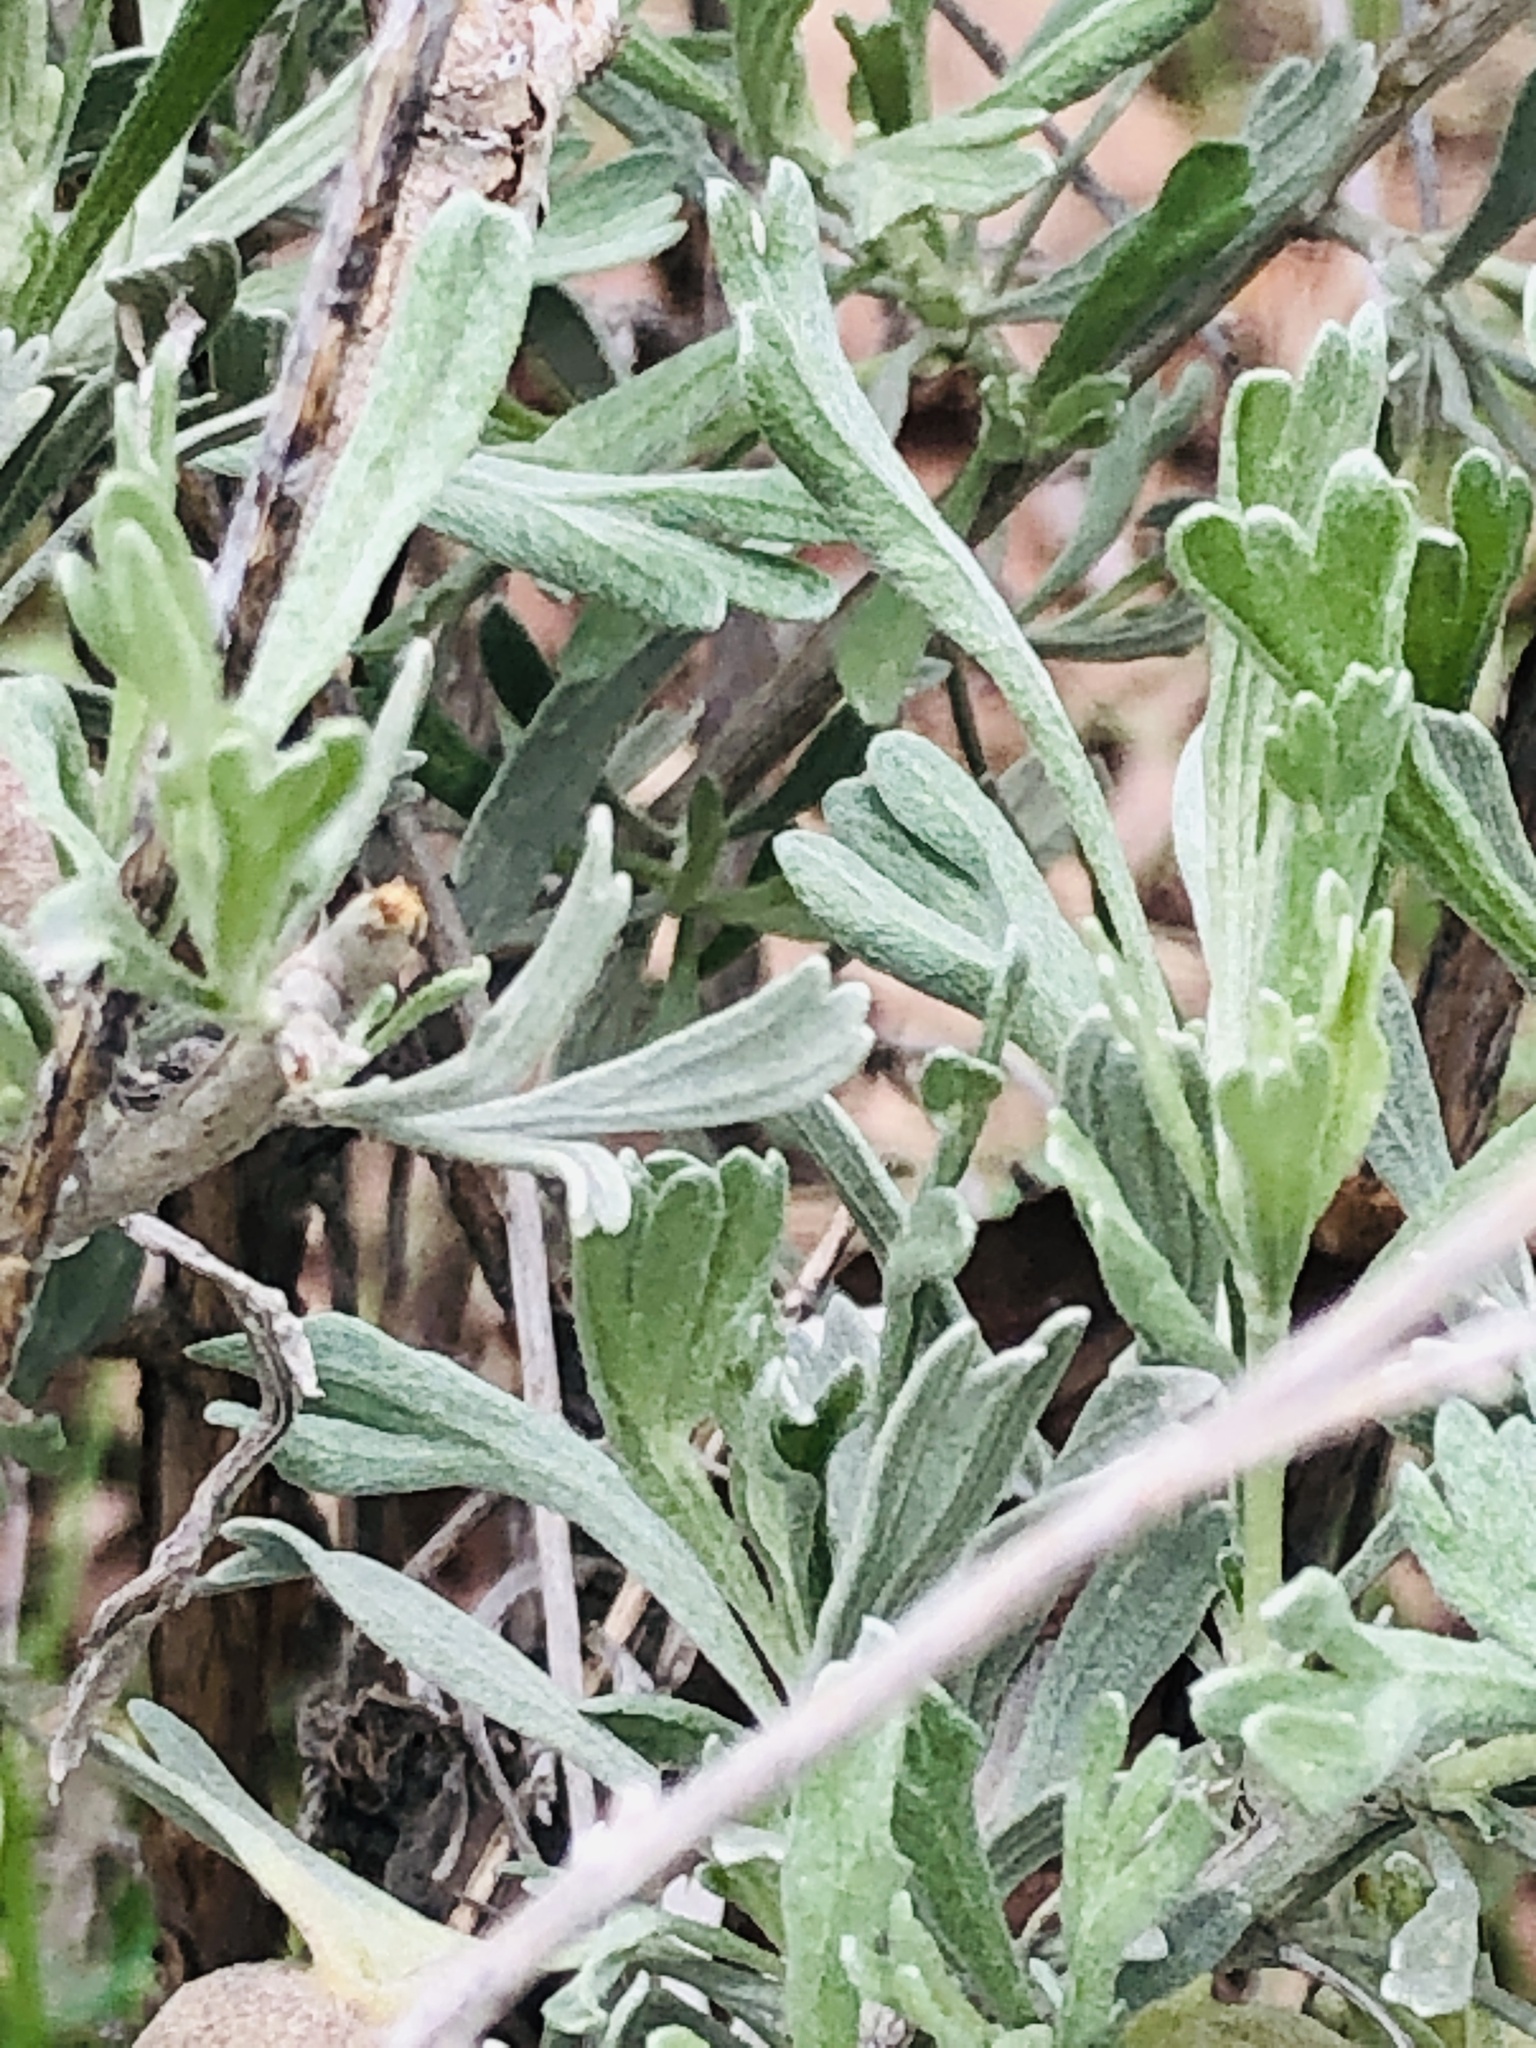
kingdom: Plantae
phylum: Tracheophyta
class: Magnoliopsida
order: Asterales
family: Asteraceae
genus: Artemisia
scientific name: Artemisia tridentata
